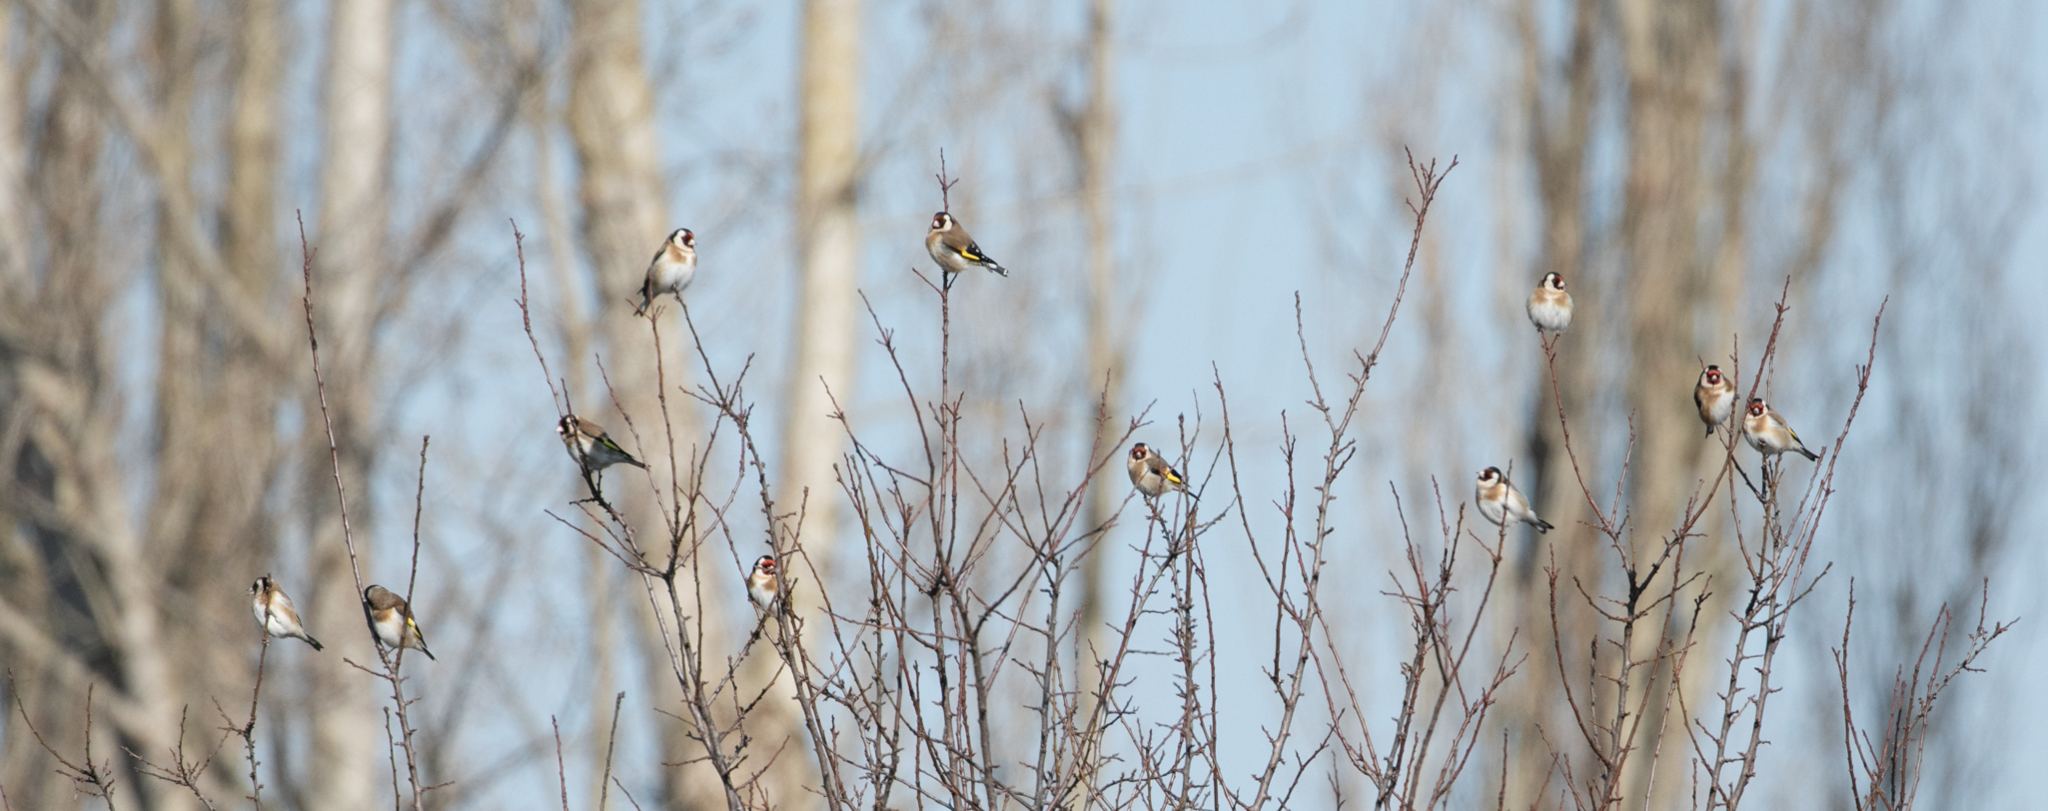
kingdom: Animalia
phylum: Chordata
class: Aves
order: Passeriformes
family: Fringillidae
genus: Carduelis
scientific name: Carduelis carduelis
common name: European goldfinch
